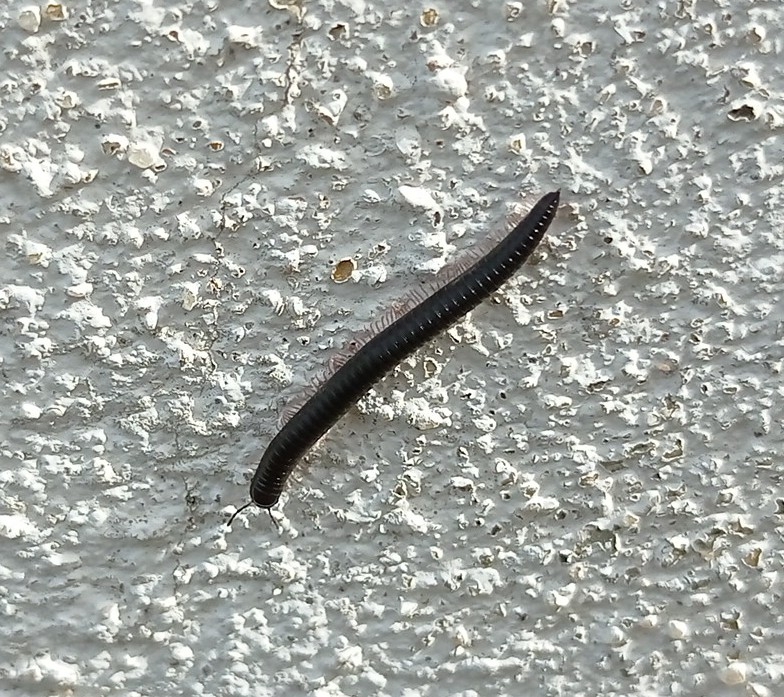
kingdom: Animalia
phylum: Arthropoda
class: Diplopoda
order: Julida
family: Julidae
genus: Ommatoiulus
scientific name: Ommatoiulus moreleti
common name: Portuguese millipede
